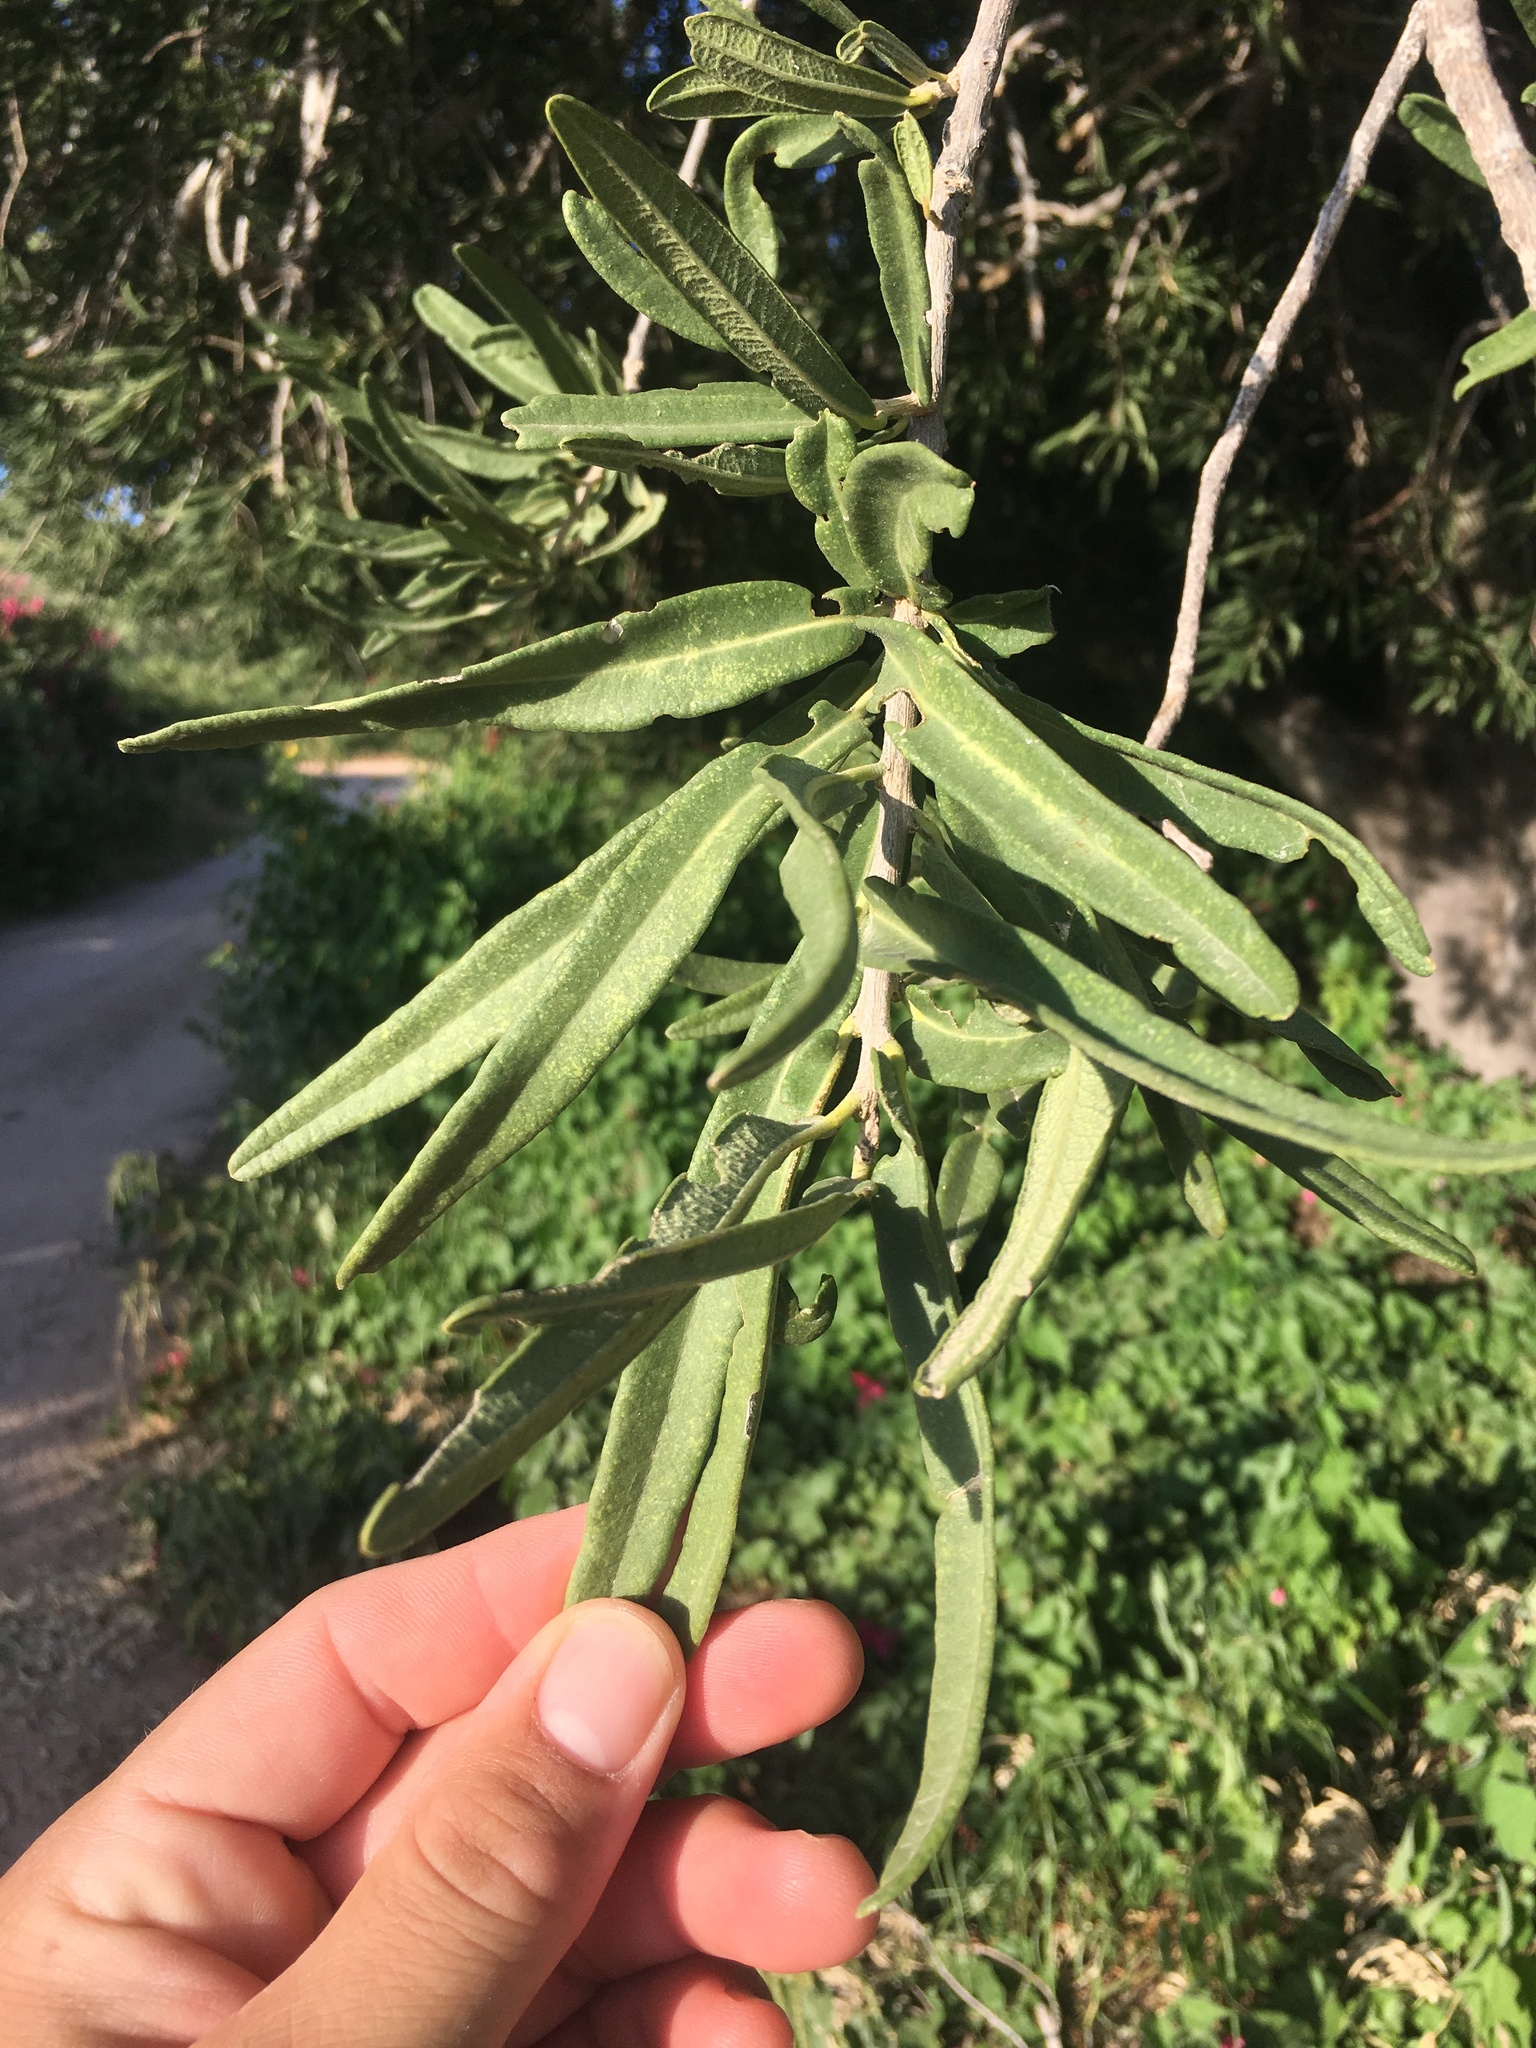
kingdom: Plantae
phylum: Tracheophyta
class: Magnoliopsida
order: Brassicales
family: Stixaceae
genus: Forchhammeria
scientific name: Forchhammeria watsonii
